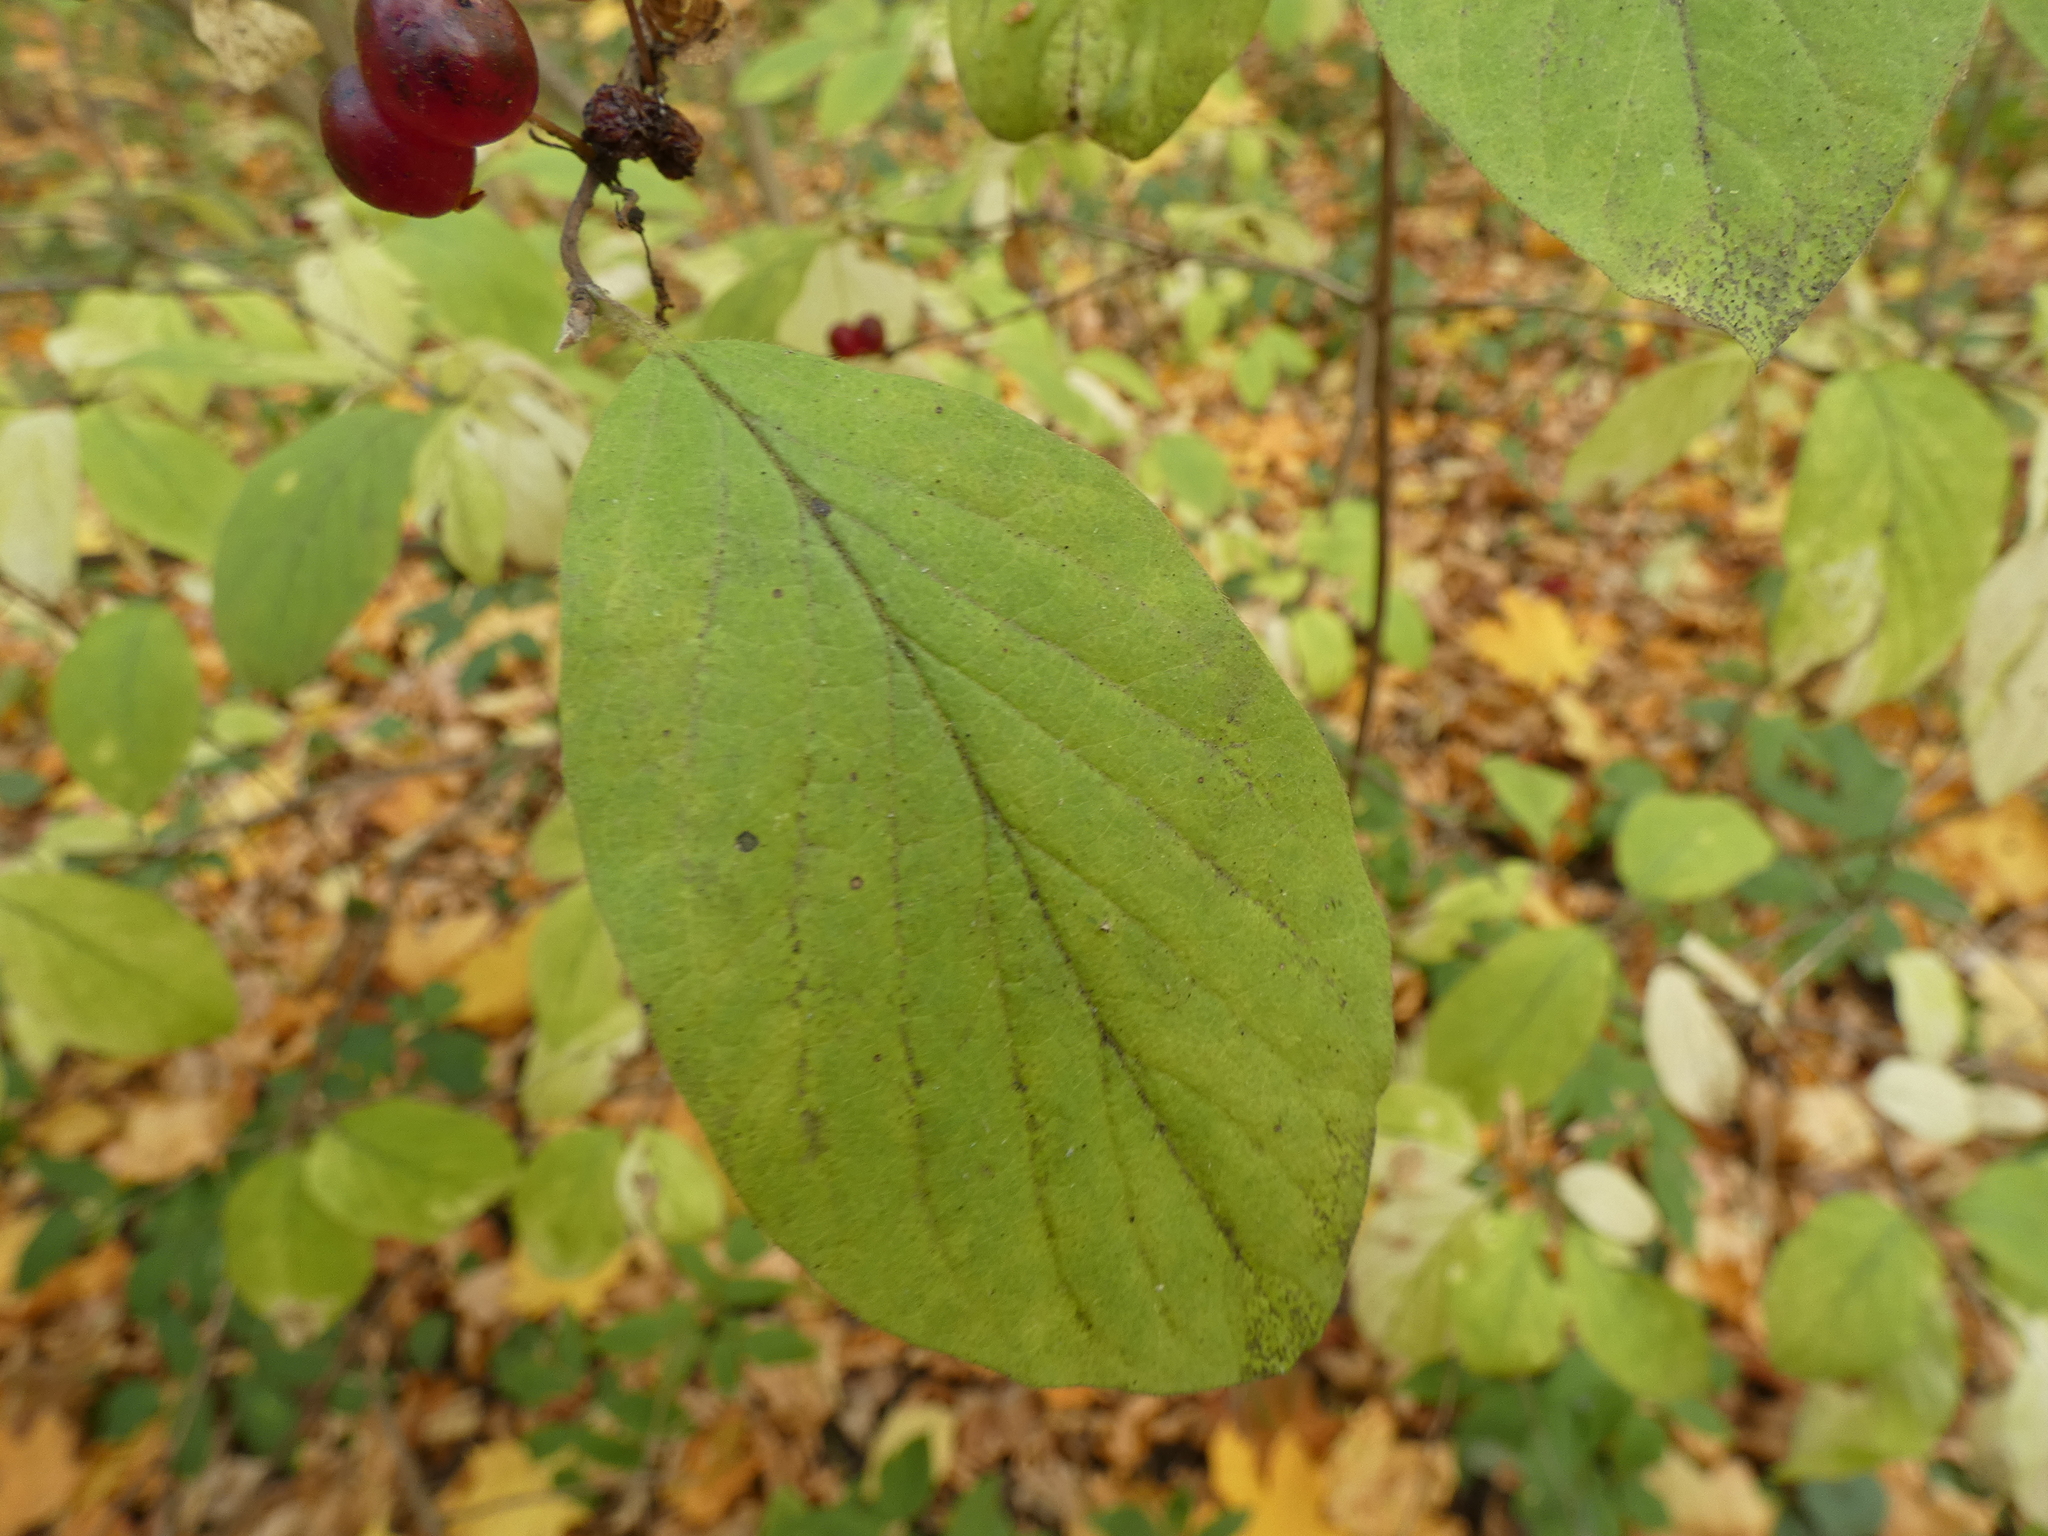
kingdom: Plantae
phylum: Tracheophyta
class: Magnoliopsida
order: Dipsacales
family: Caprifoliaceae
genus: Lonicera
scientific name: Lonicera xylosteum
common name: Fly honeysuckle
